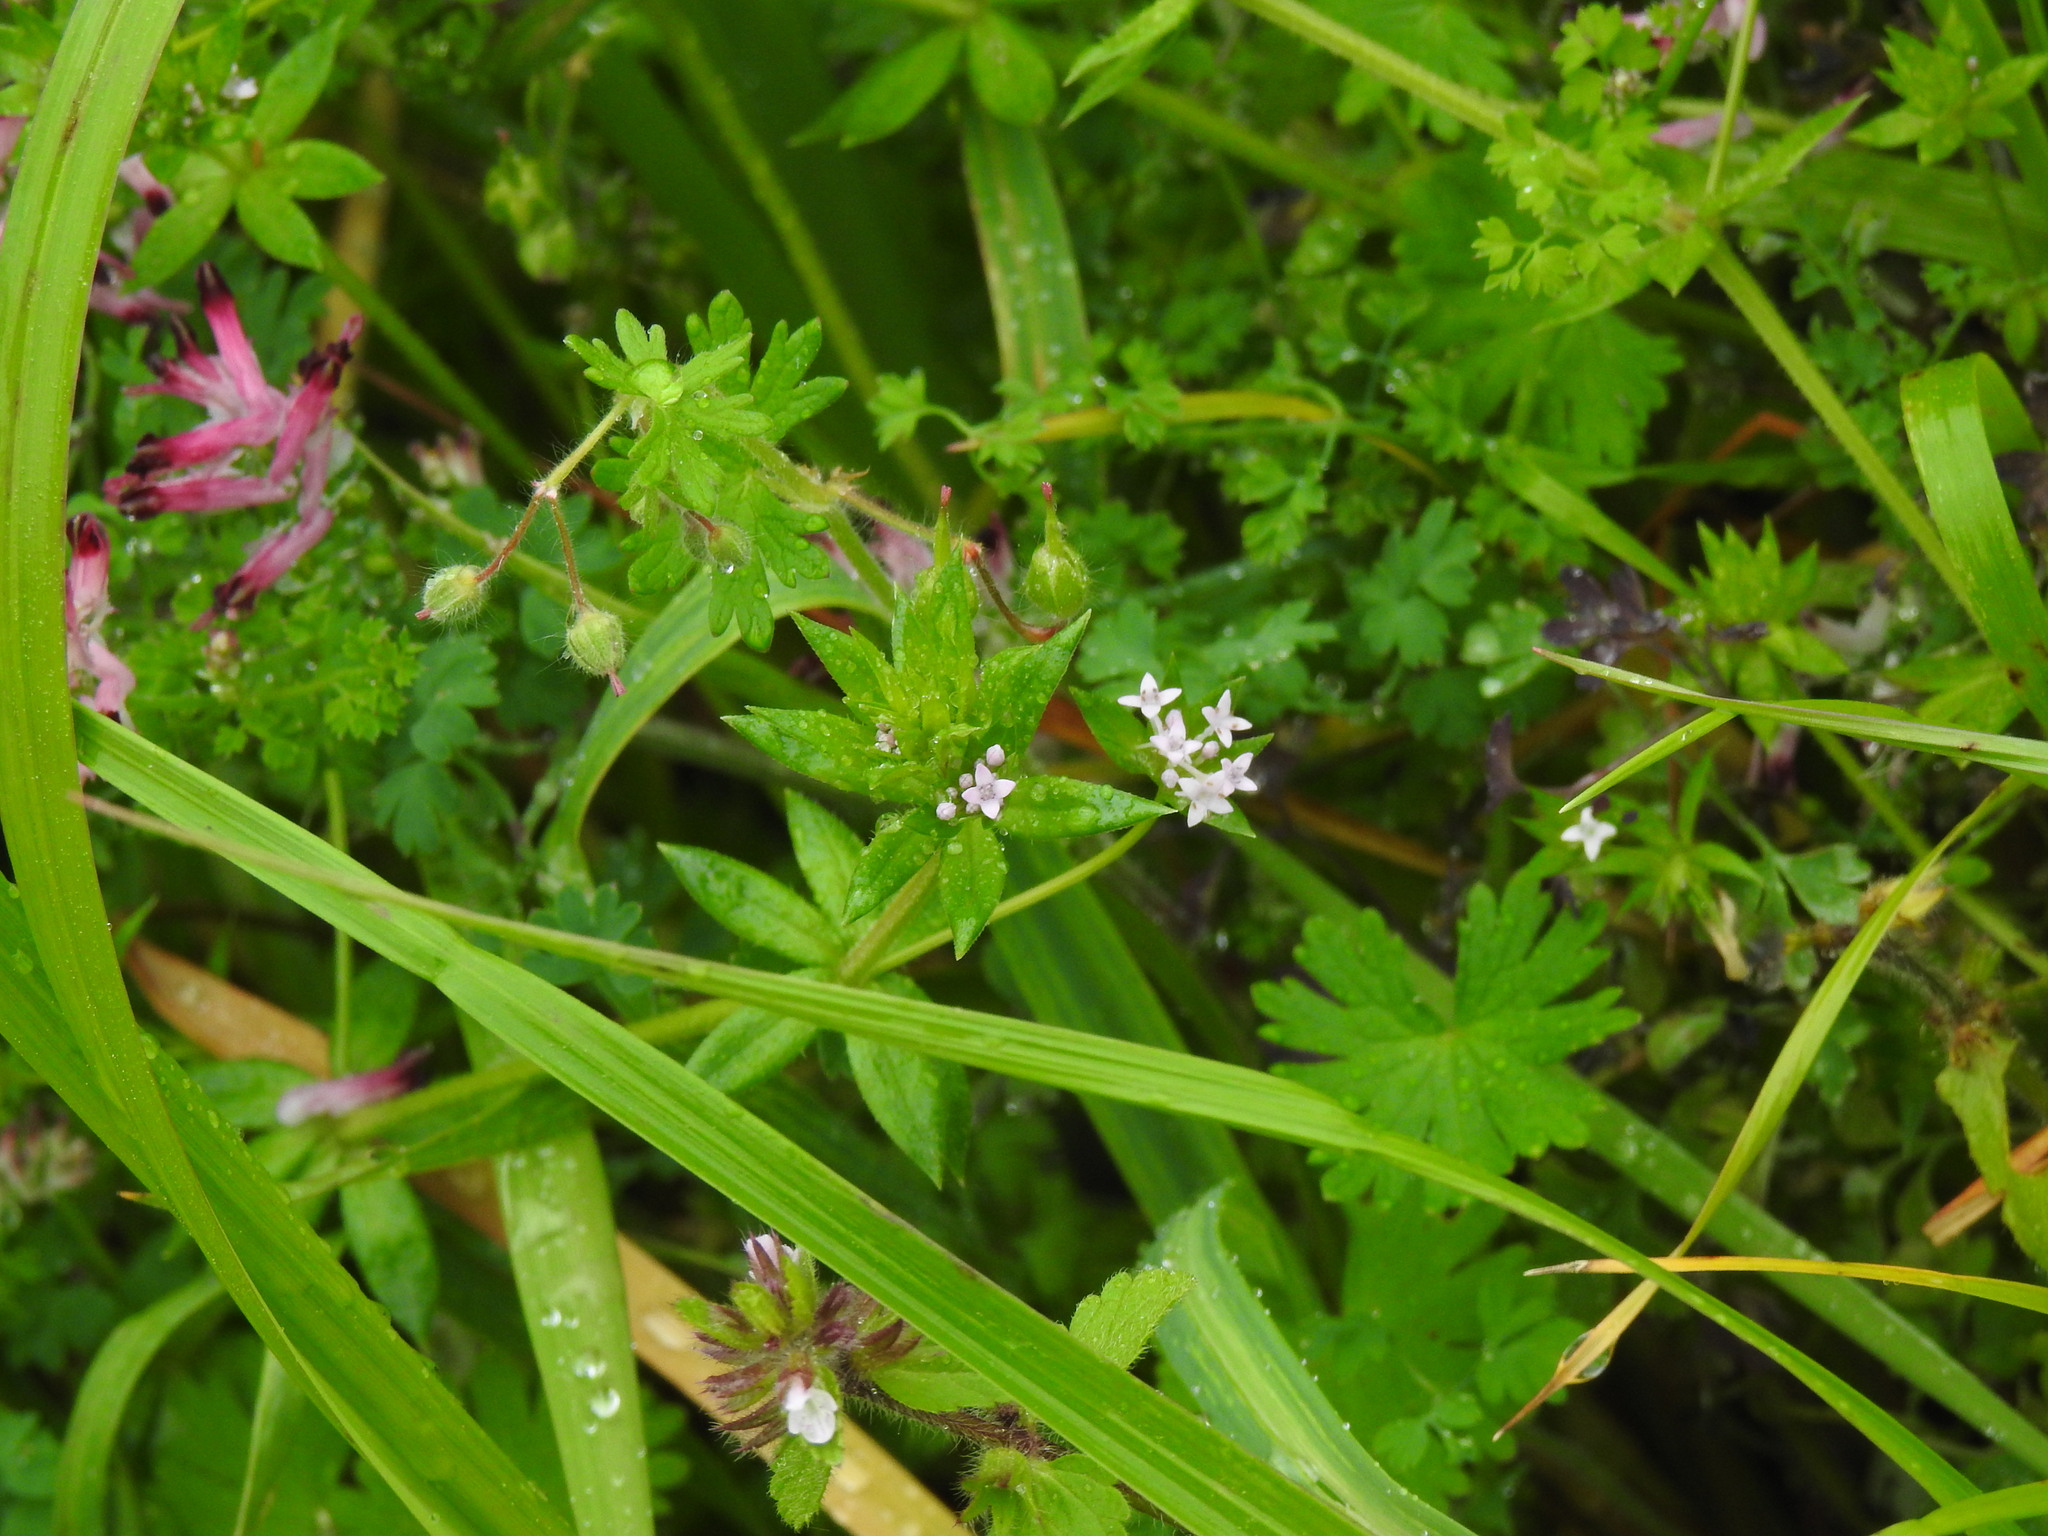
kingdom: Plantae
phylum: Tracheophyta
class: Magnoliopsida
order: Gentianales
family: Rubiaceae
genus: Sherardia
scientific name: Sherardia arvensis
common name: Field madder
